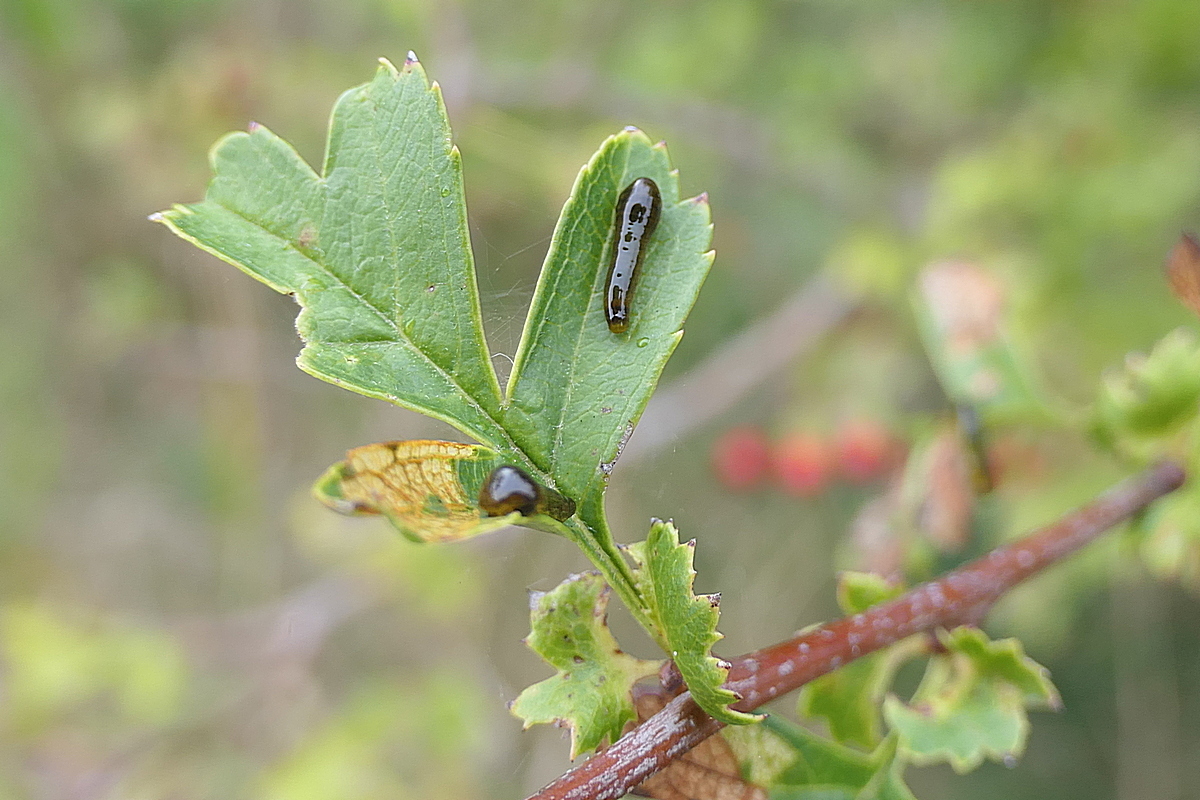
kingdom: Animalia
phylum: Arthropoda
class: Insecta
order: Hymenoptera
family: Tenthredinidae
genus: Caliroa
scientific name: Caliroa cerasi
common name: Pear sawfly
